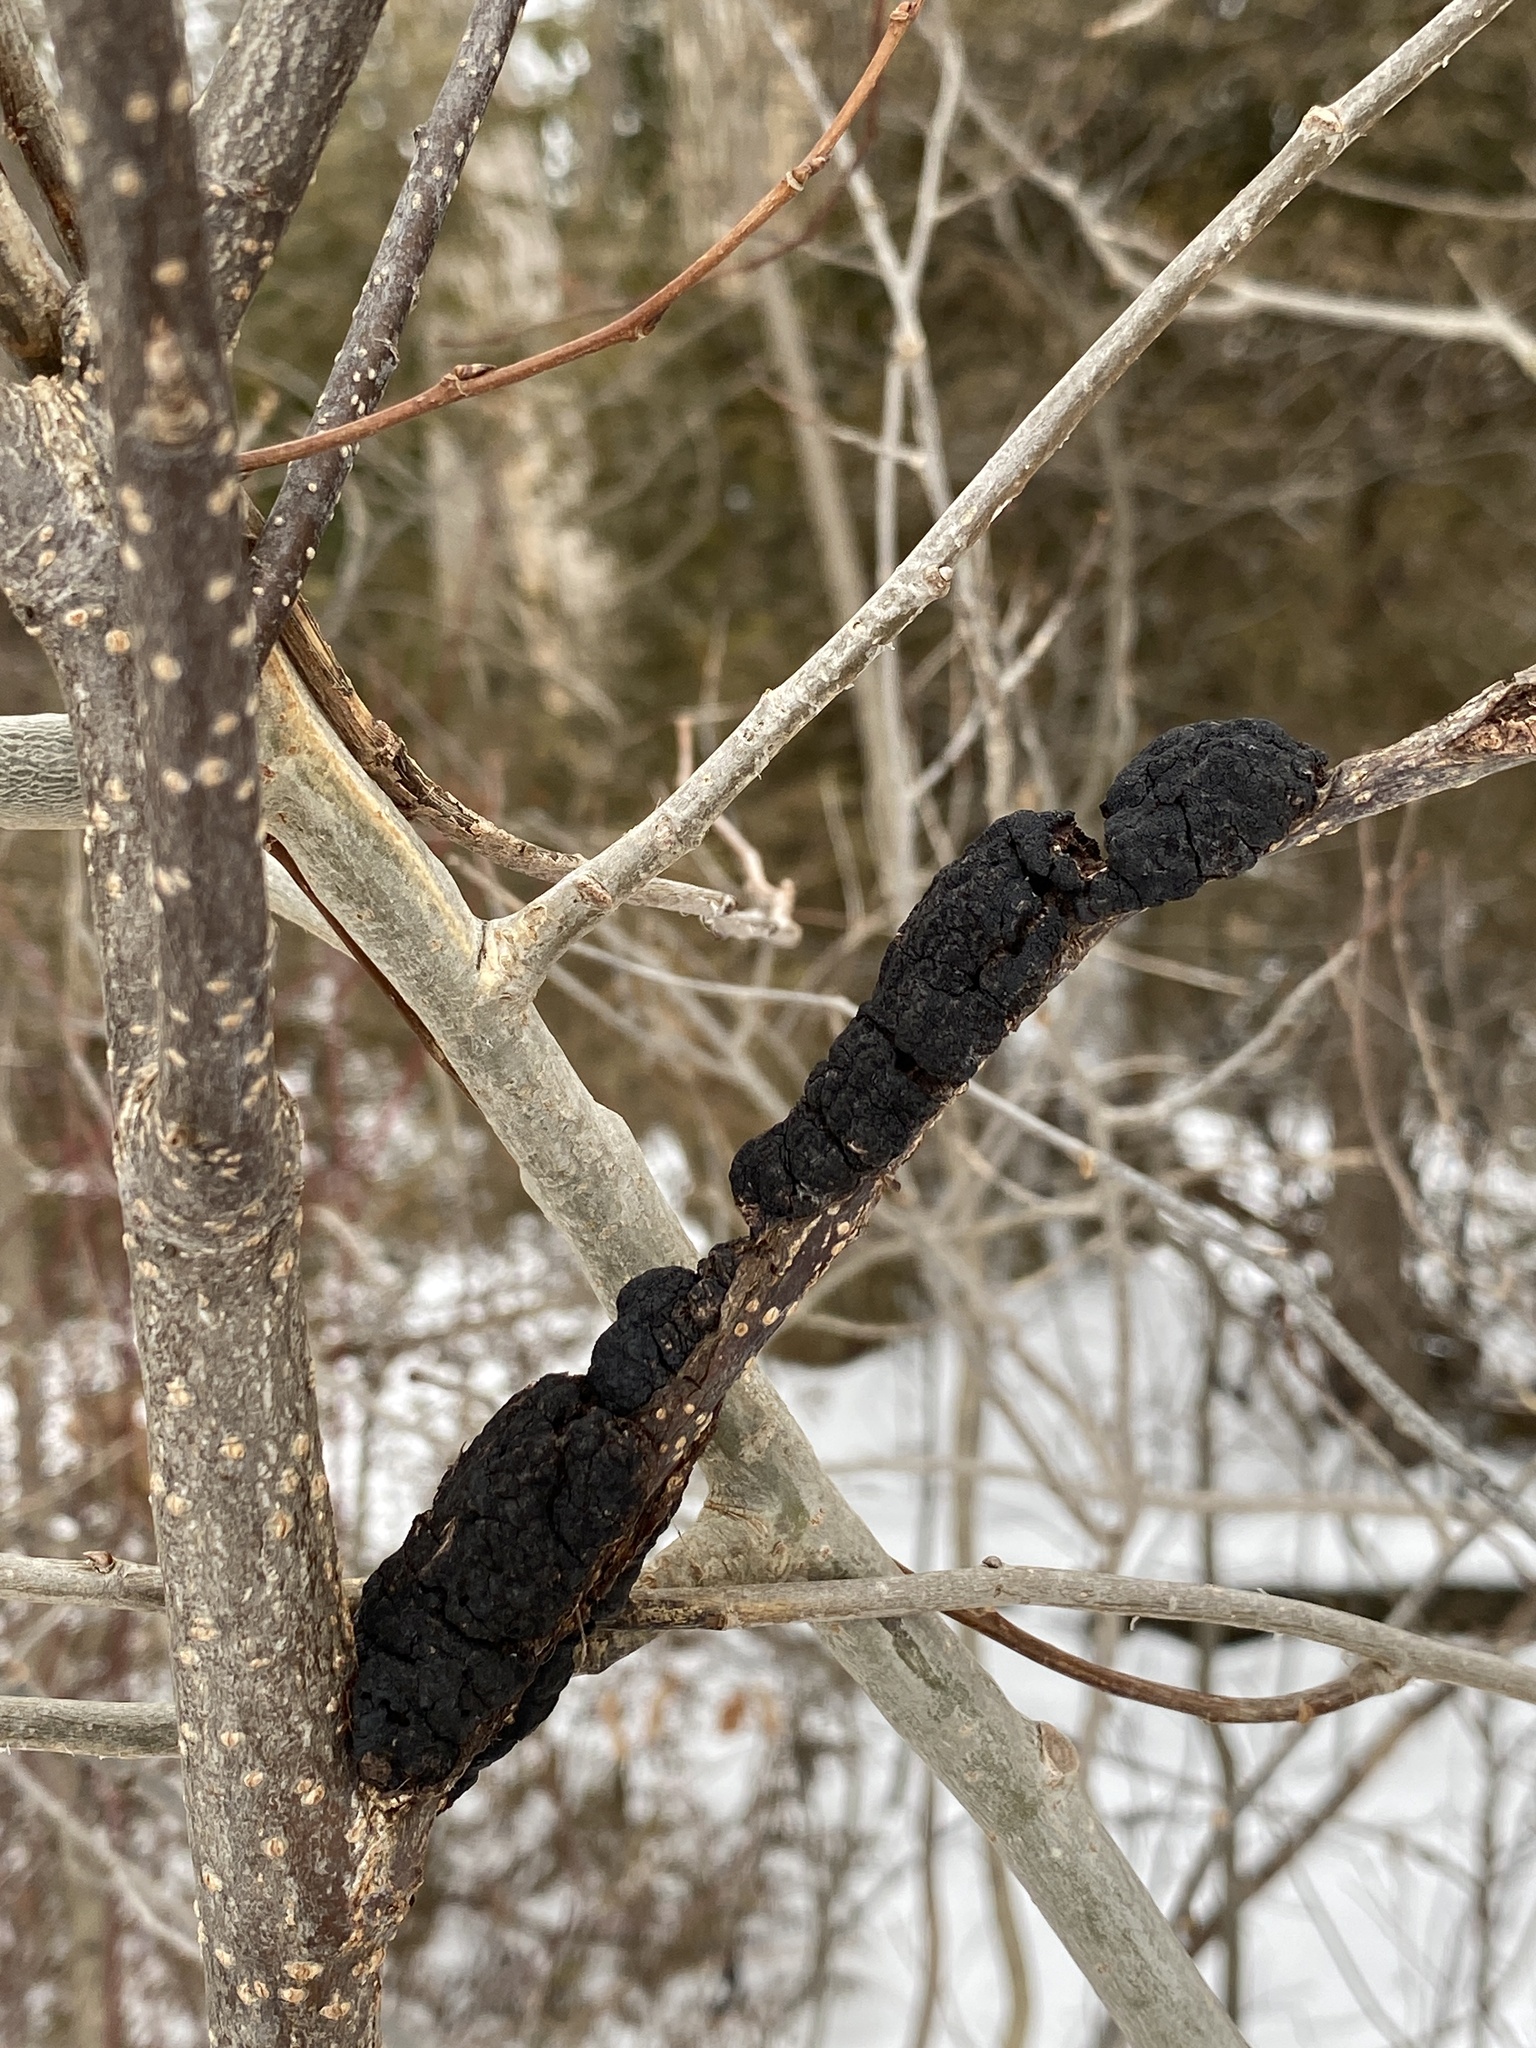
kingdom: Fungi
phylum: Ascomycota
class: Dothideomycetes
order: Venturiales
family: Venturiaceae
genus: Apiosporina
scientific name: Apiosporina morbosa
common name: Black knot
